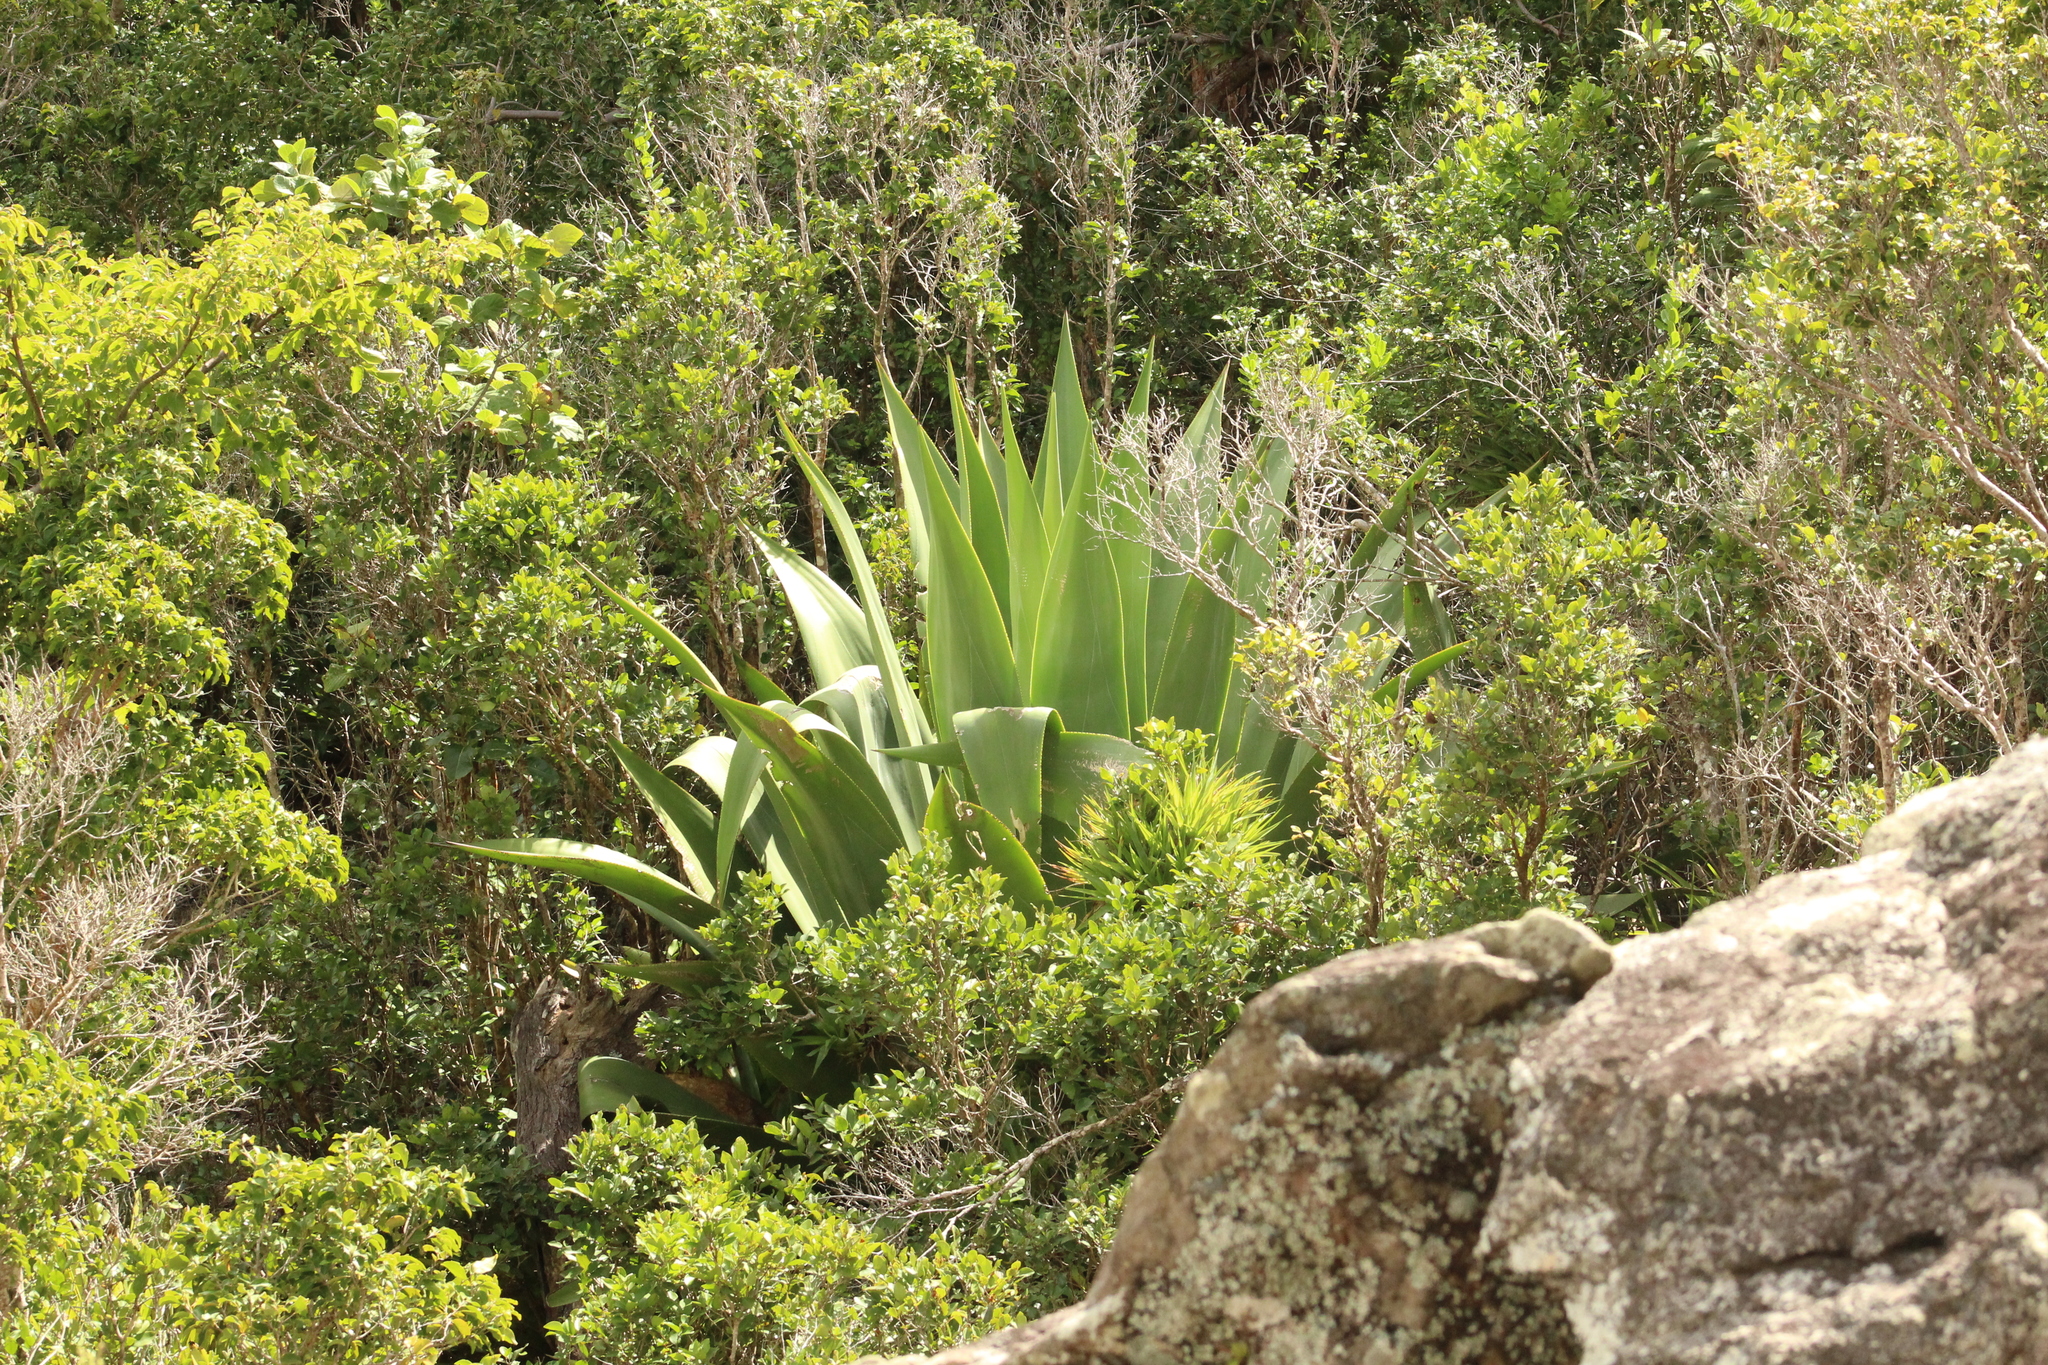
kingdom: Plantae
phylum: Tracheophyta
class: Liliopsida
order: Asparagales
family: Asparagaceae
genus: Agave
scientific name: Agave karatto
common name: Century plant
